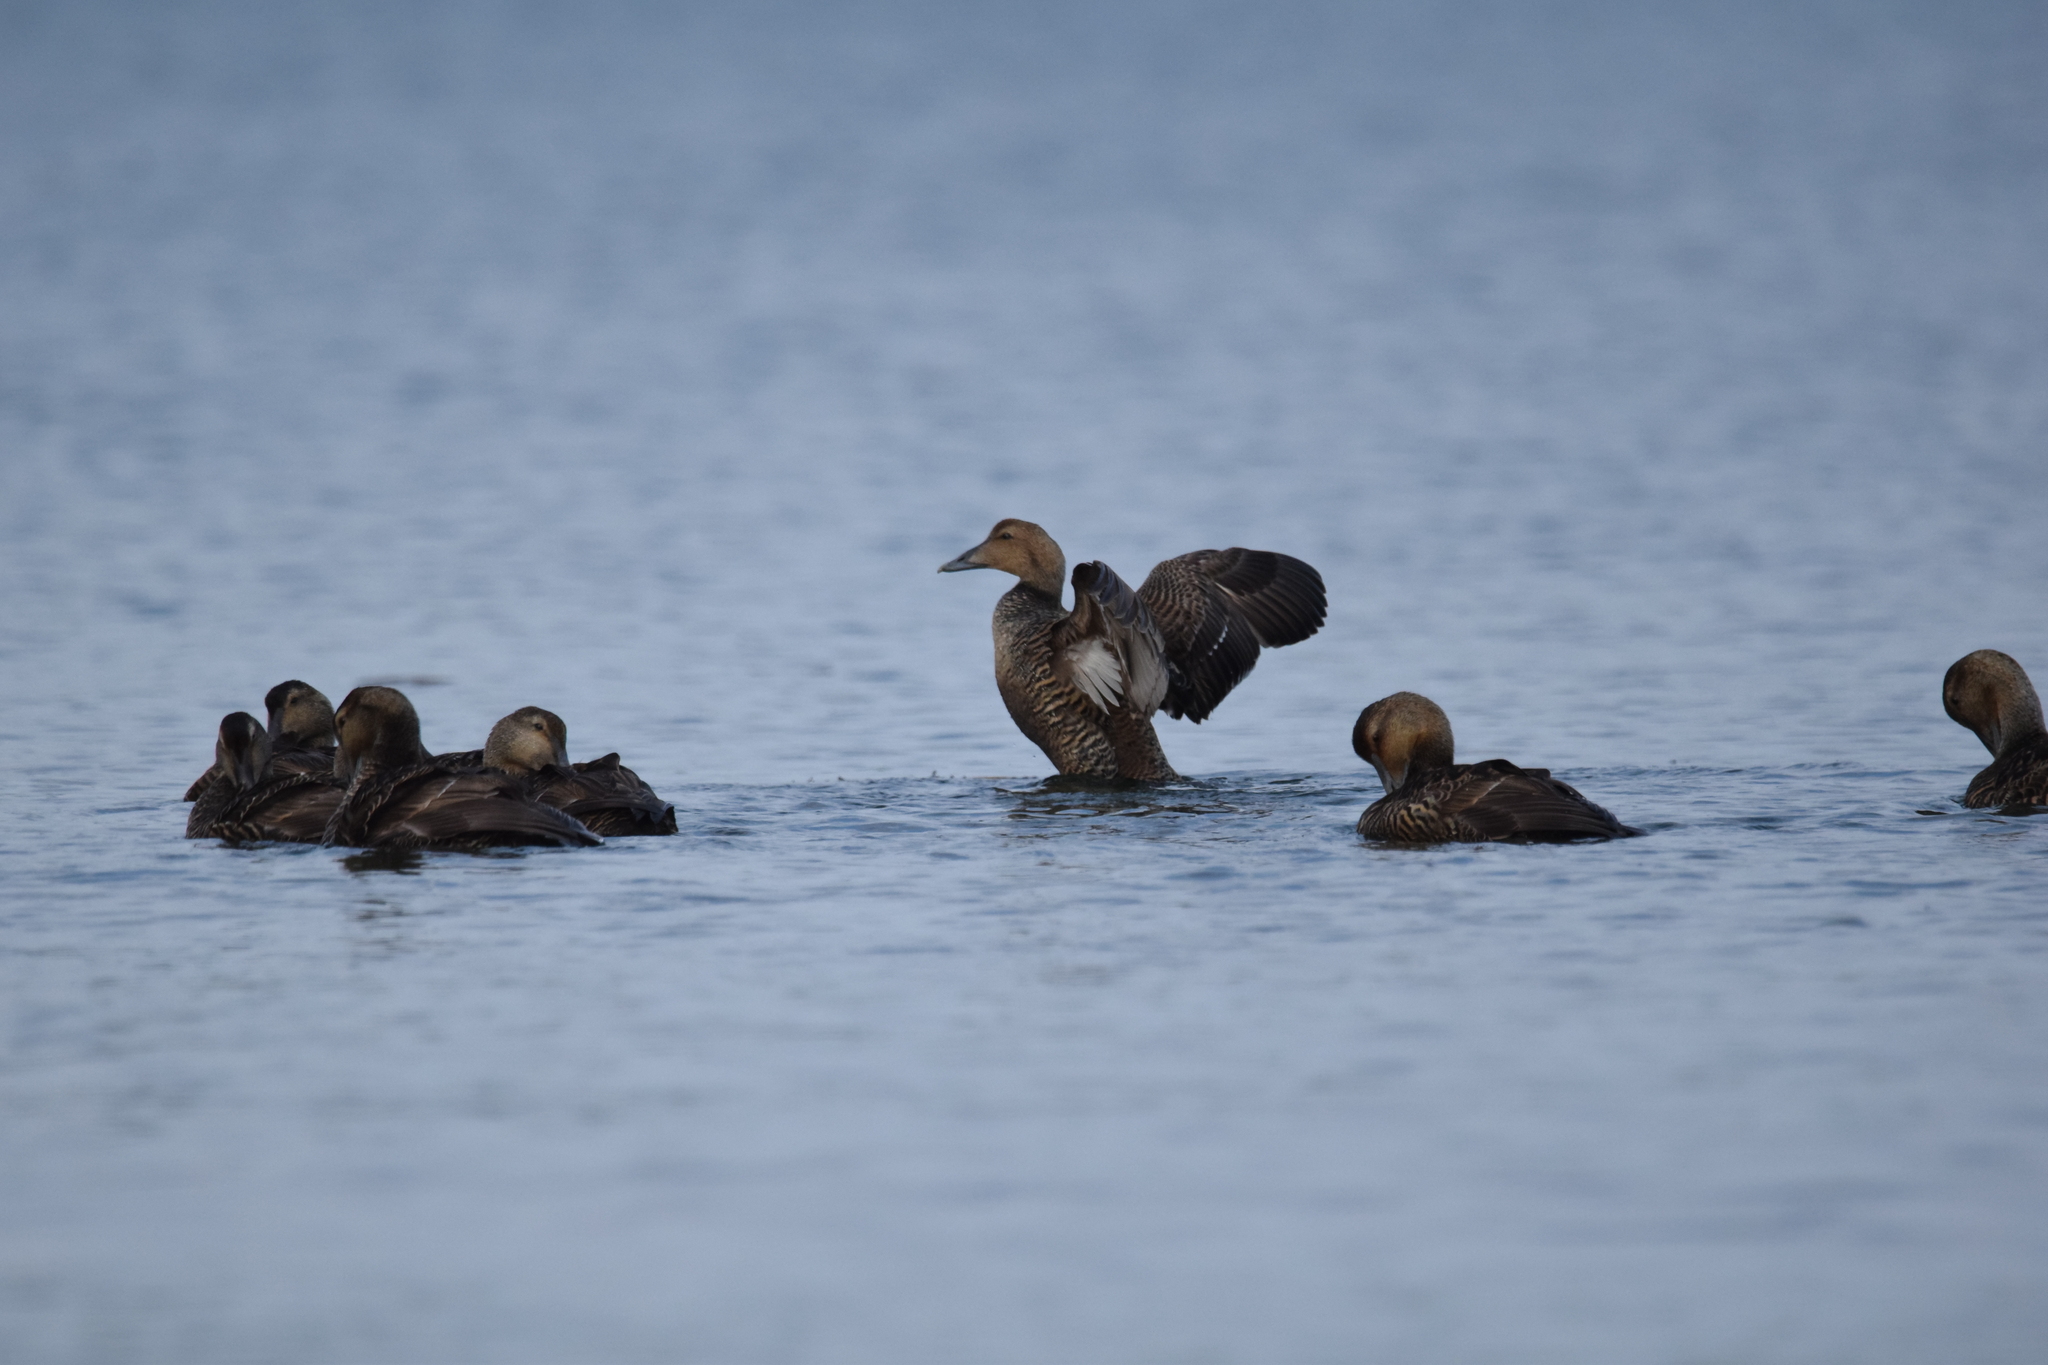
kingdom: Animalia
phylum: Chordata
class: Aves
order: Anseriformes
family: Anatidae
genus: Somateria
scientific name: Somateria mollissima
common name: Common eider
